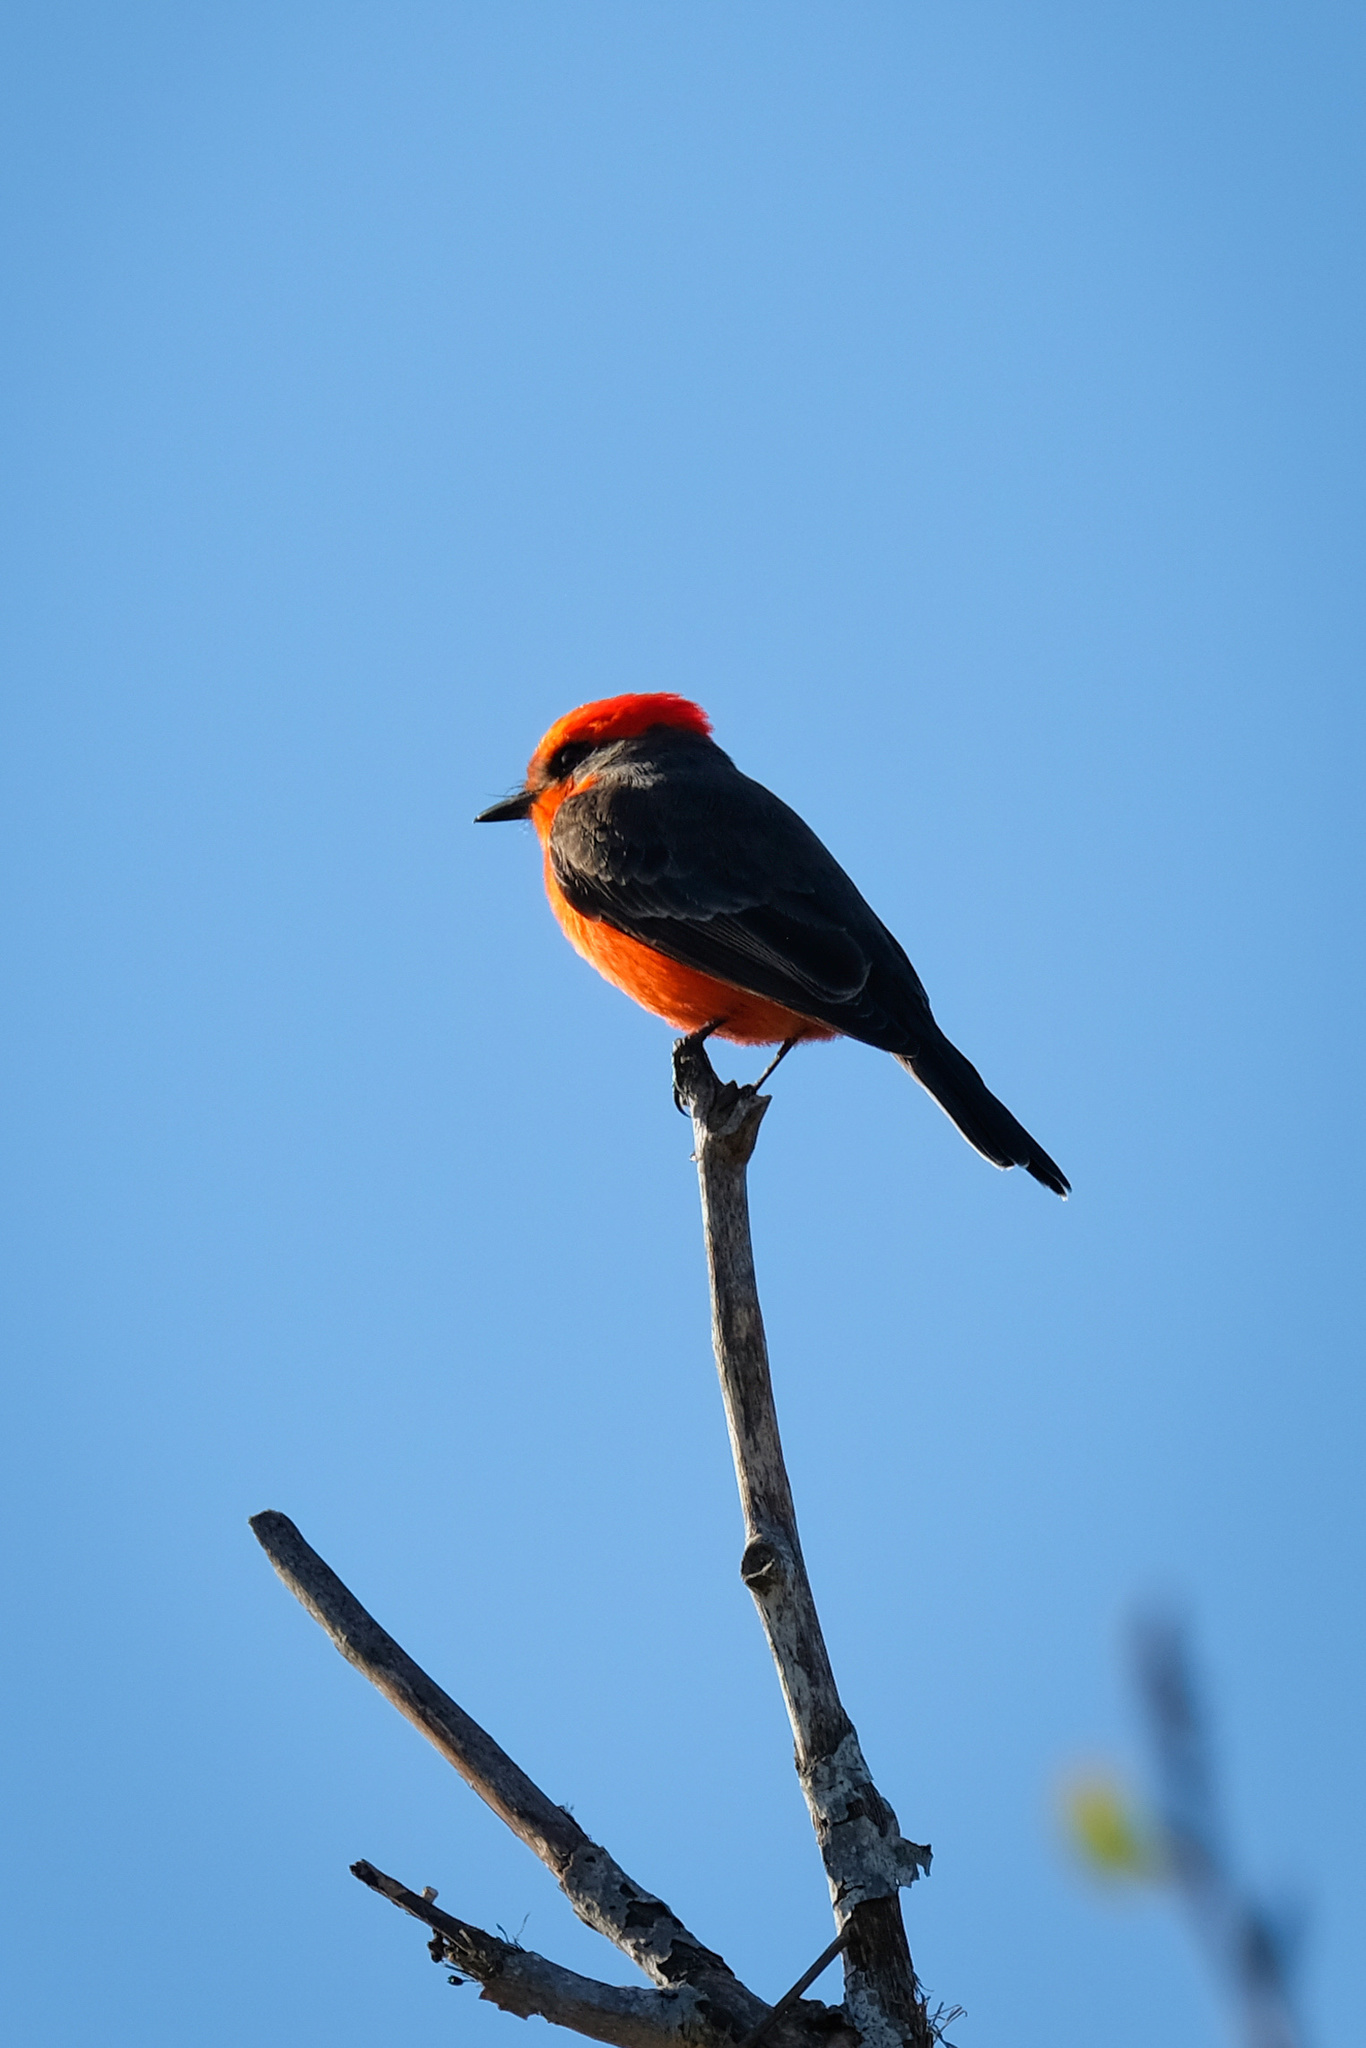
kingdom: Animalia
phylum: Chordata
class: Aves
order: Passeriformes
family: Tyrannidae
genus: Pyrocephalus
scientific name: Pyrocephalus rubinus
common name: Vermilion flycatcher
